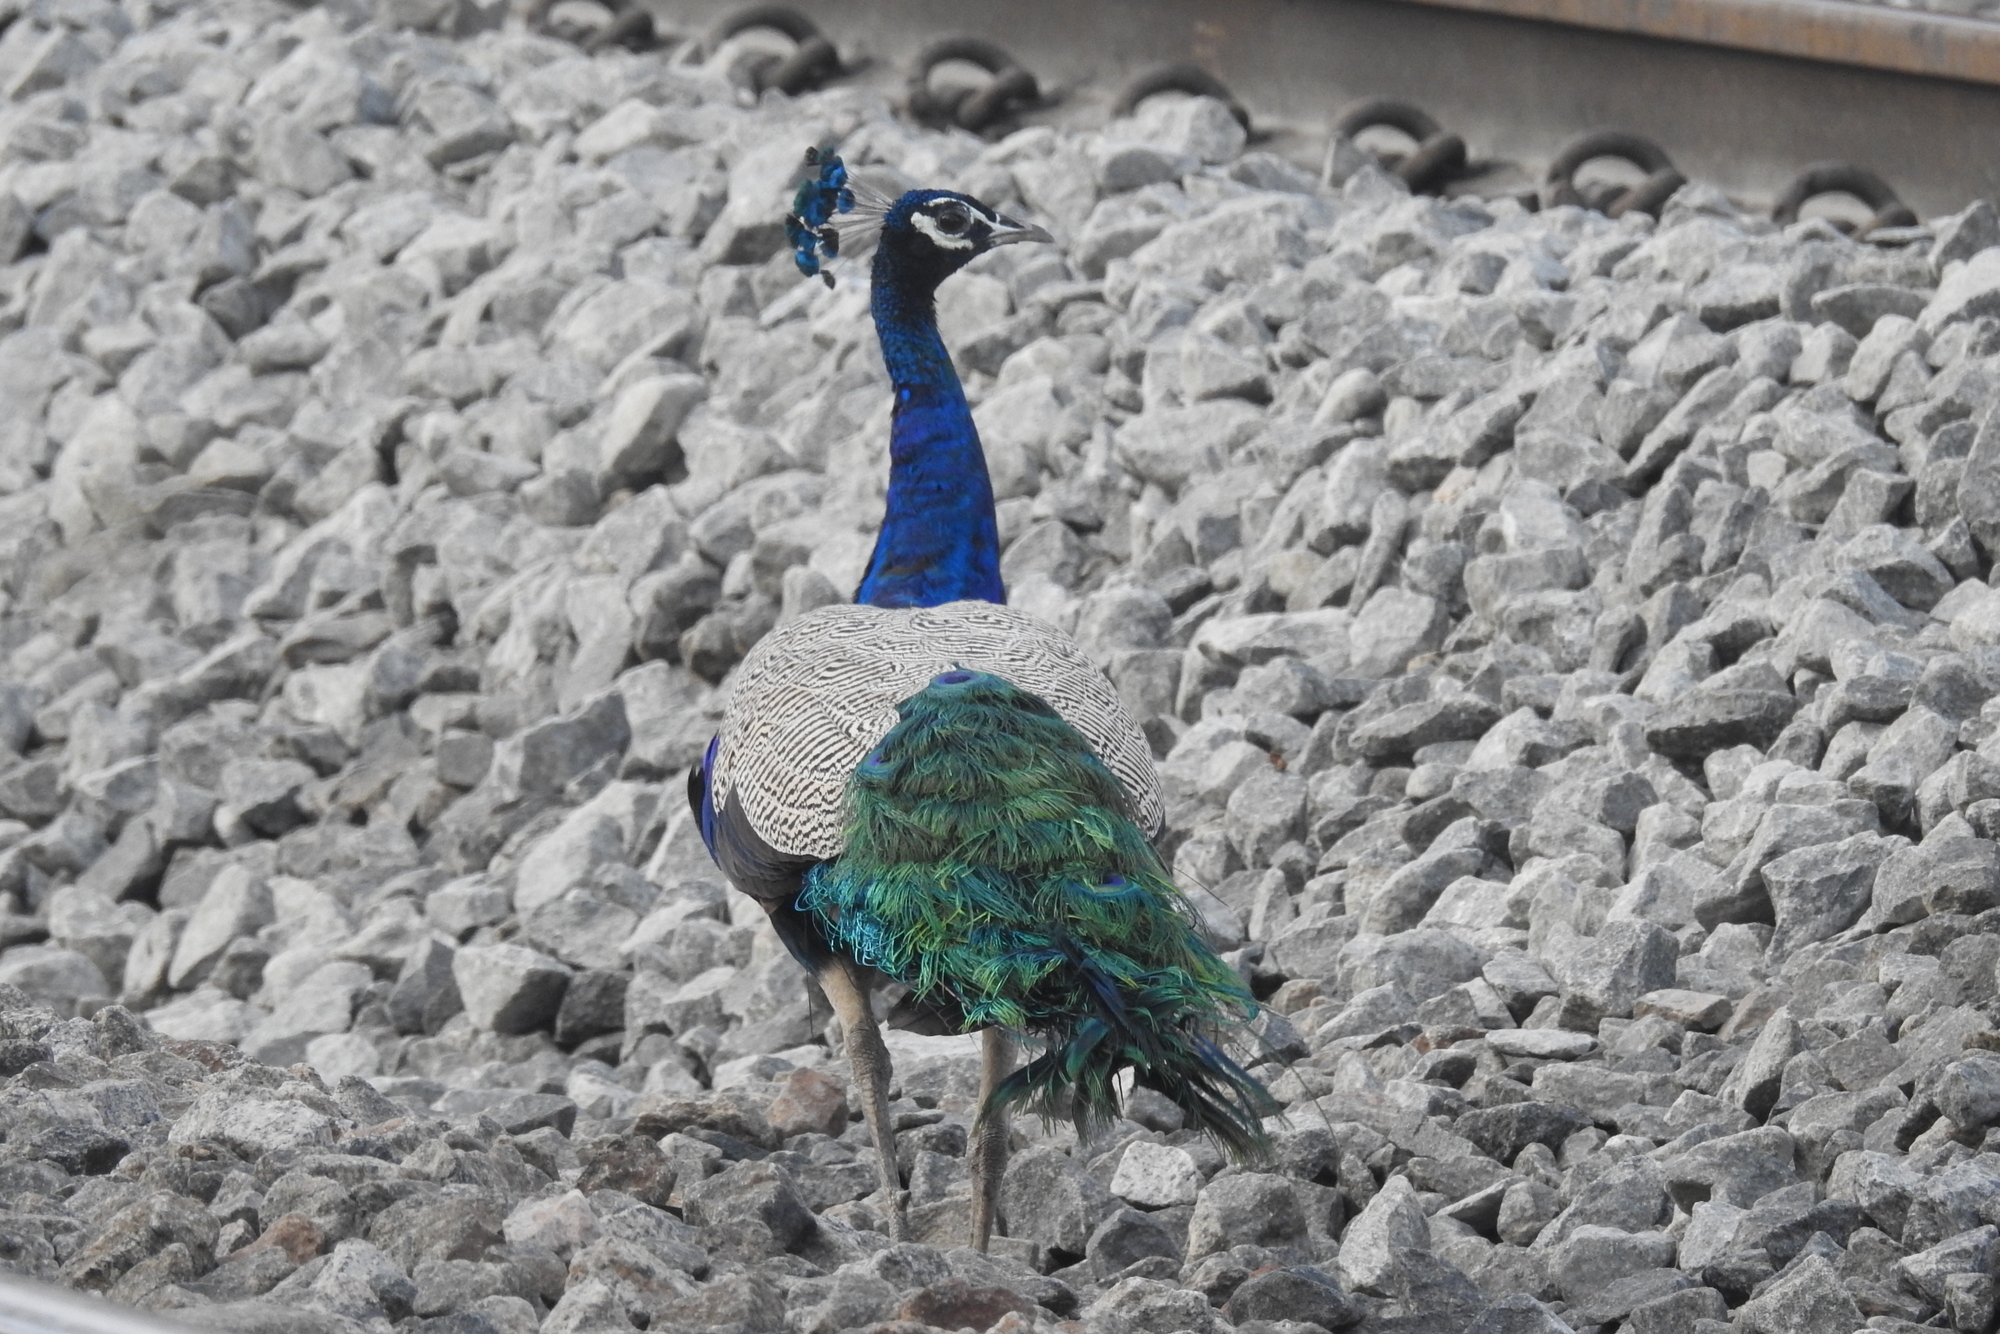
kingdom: Animalia
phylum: Chordata
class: Aves
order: Galliformes
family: Phasianidae
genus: Pavo
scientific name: Pavo cristatus
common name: Indian peafowl
